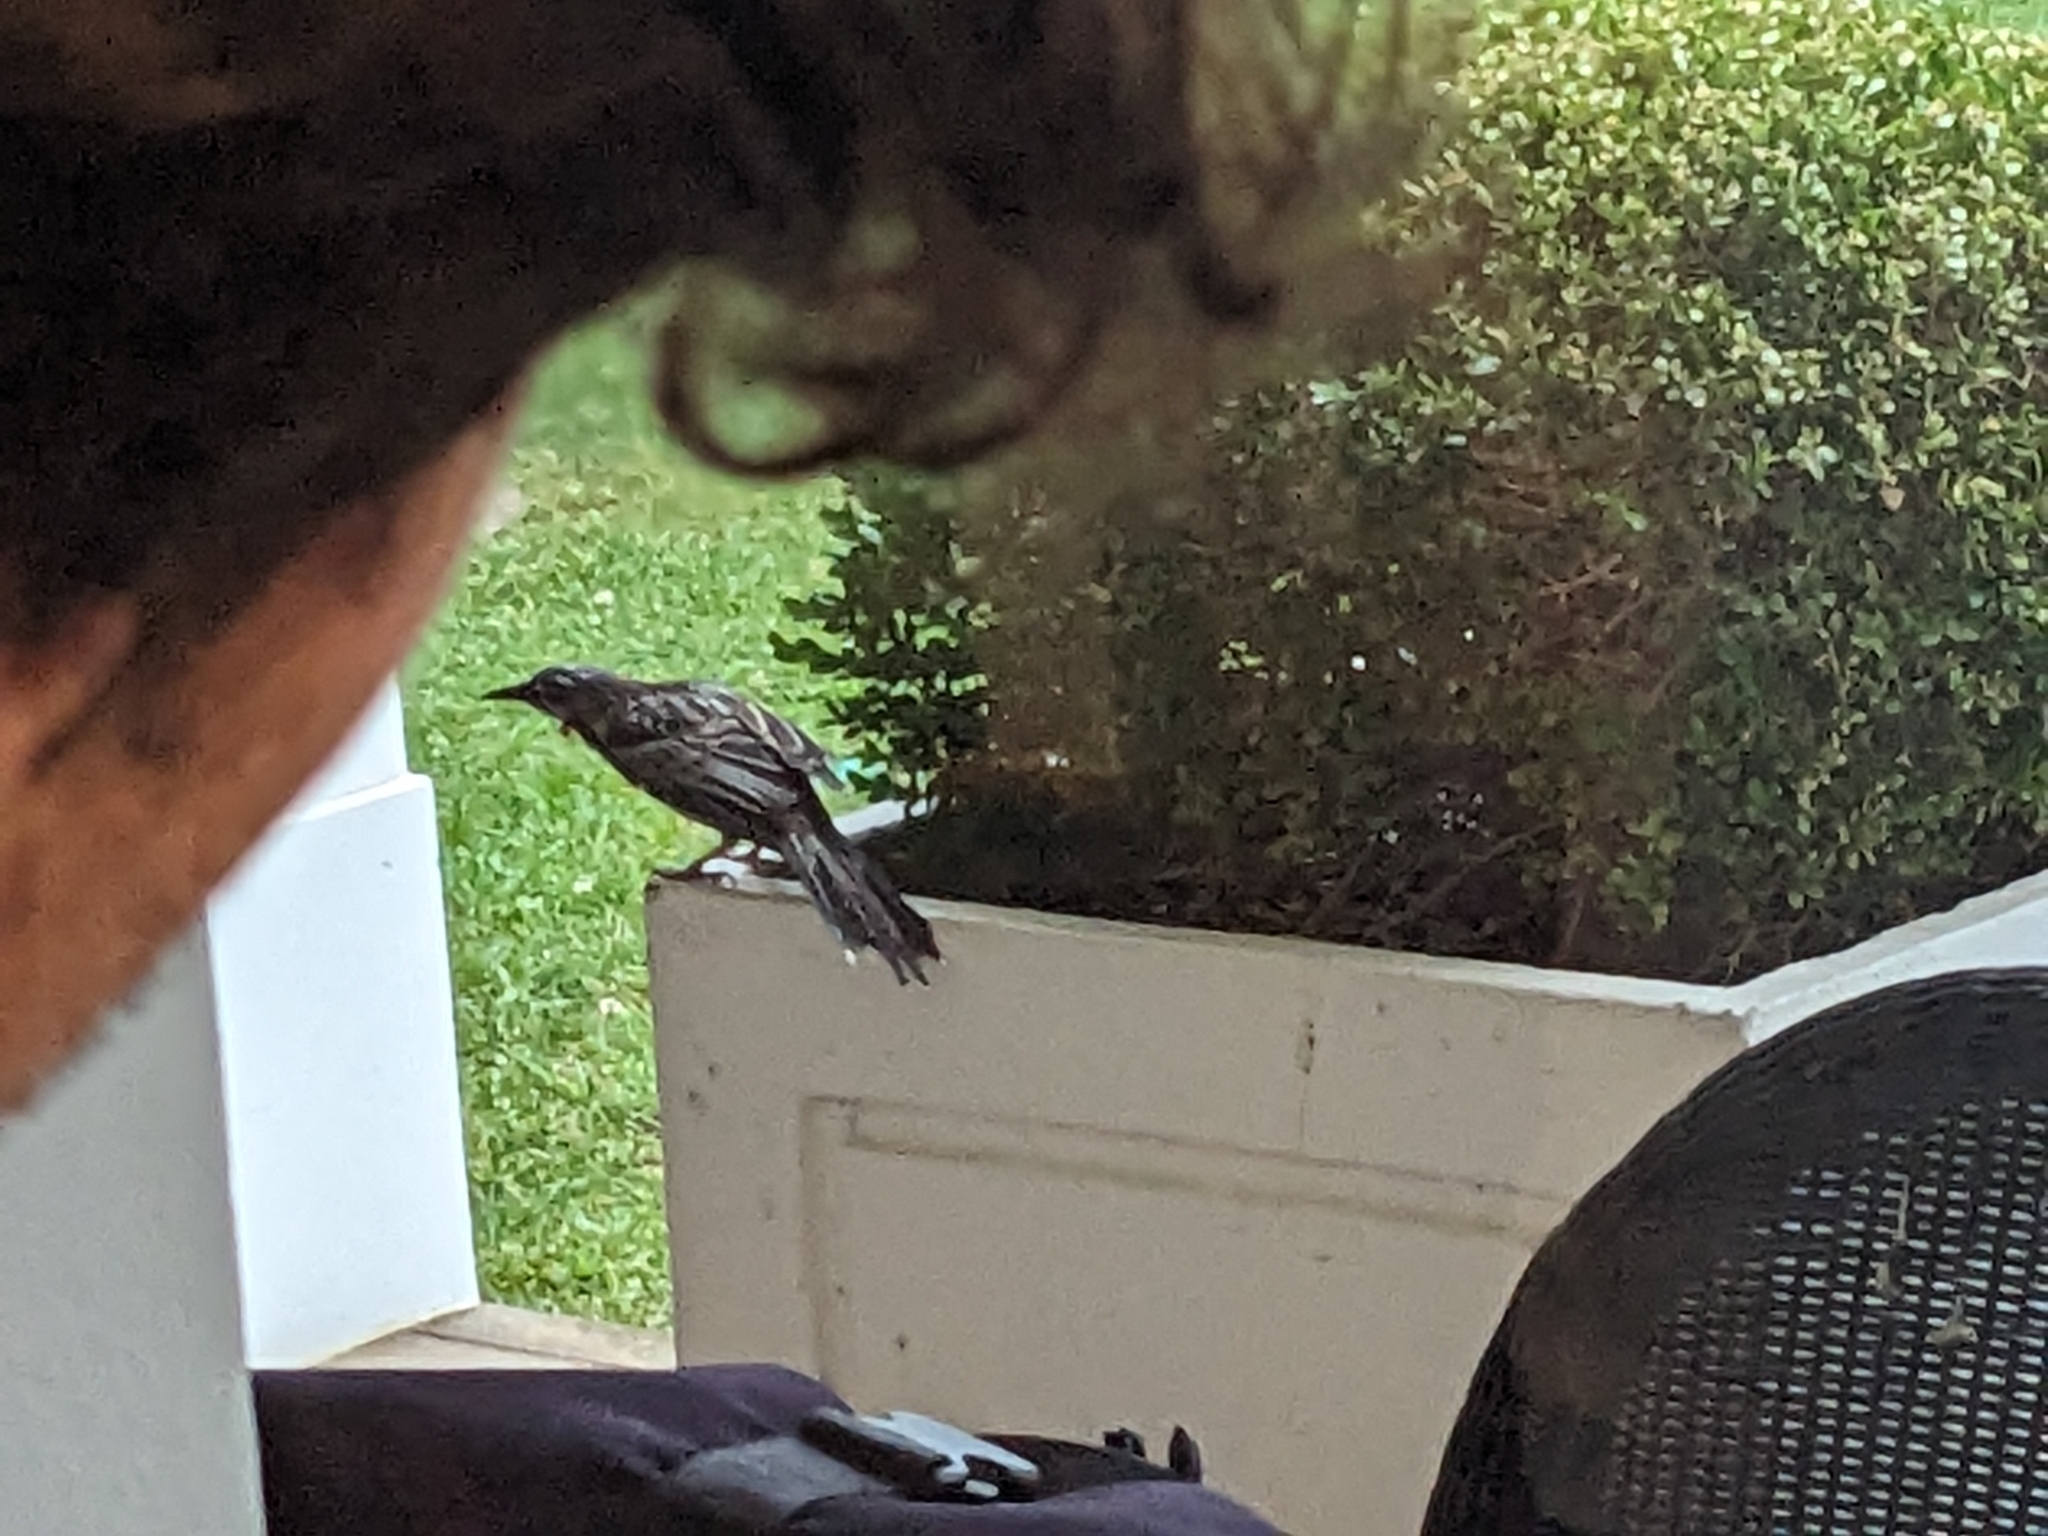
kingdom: Animalia
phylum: Chordata
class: Aves
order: Passeriformes
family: Meliphagidae
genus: Anthochaera
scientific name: Anthochaera carunculata
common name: Red wattlebird
